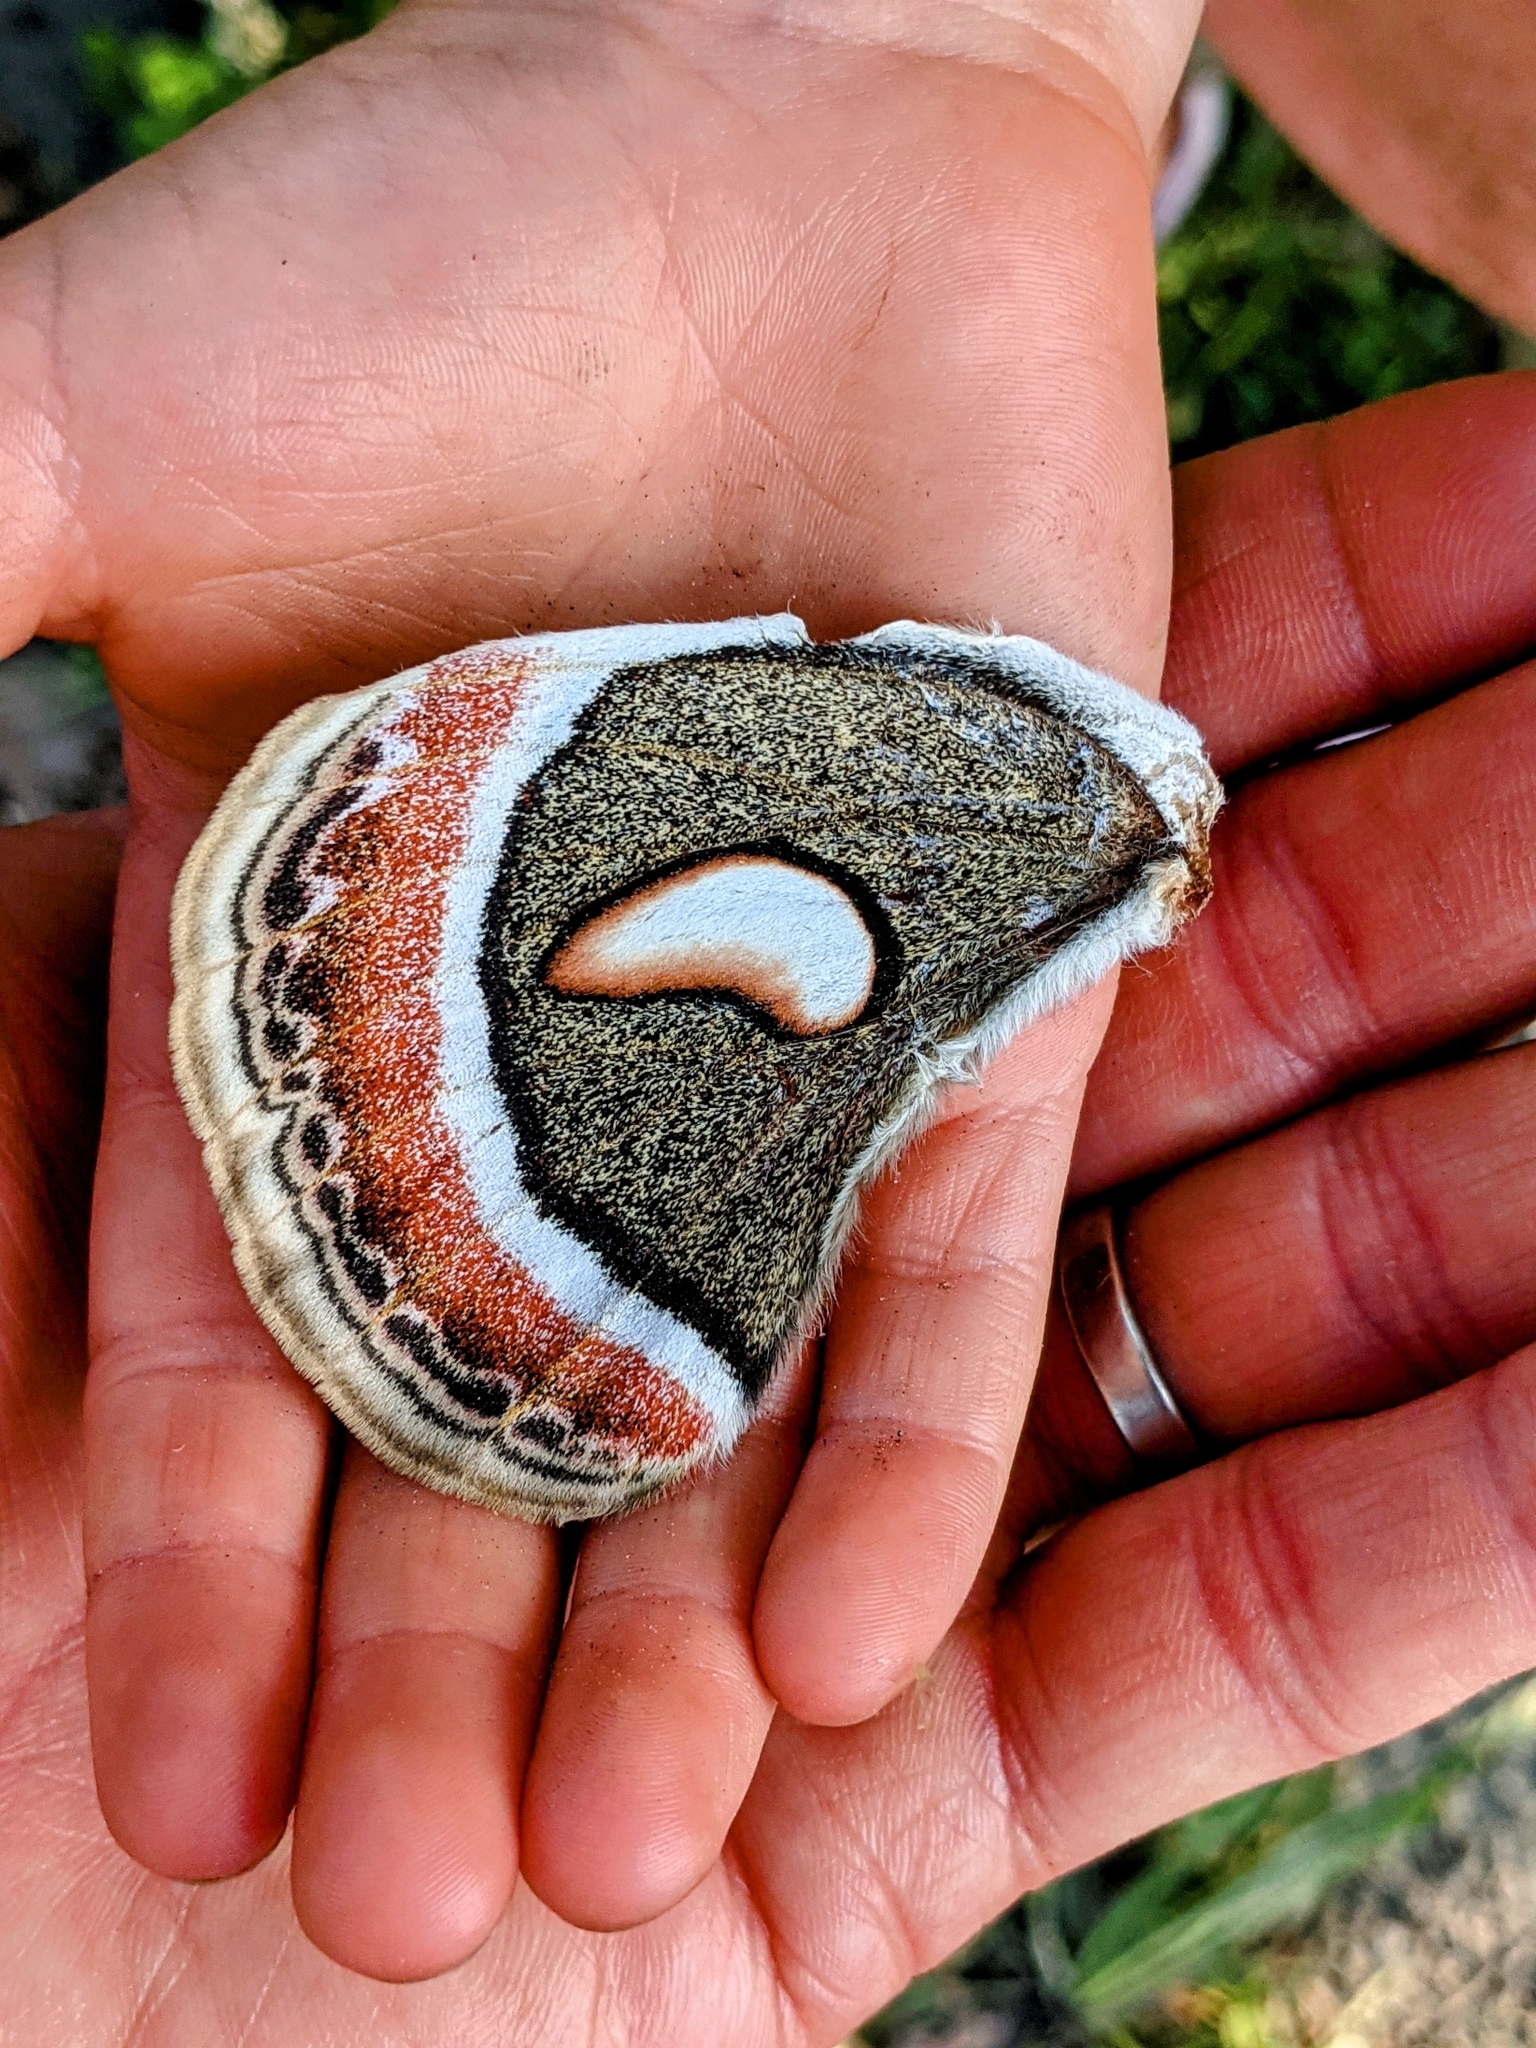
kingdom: Animalia
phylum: Arthropoda
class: Insecta
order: Lepidoptera
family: Saturniidae
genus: Hyalophora
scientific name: Hyalophora cecropia
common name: Cecropia silkmoth
